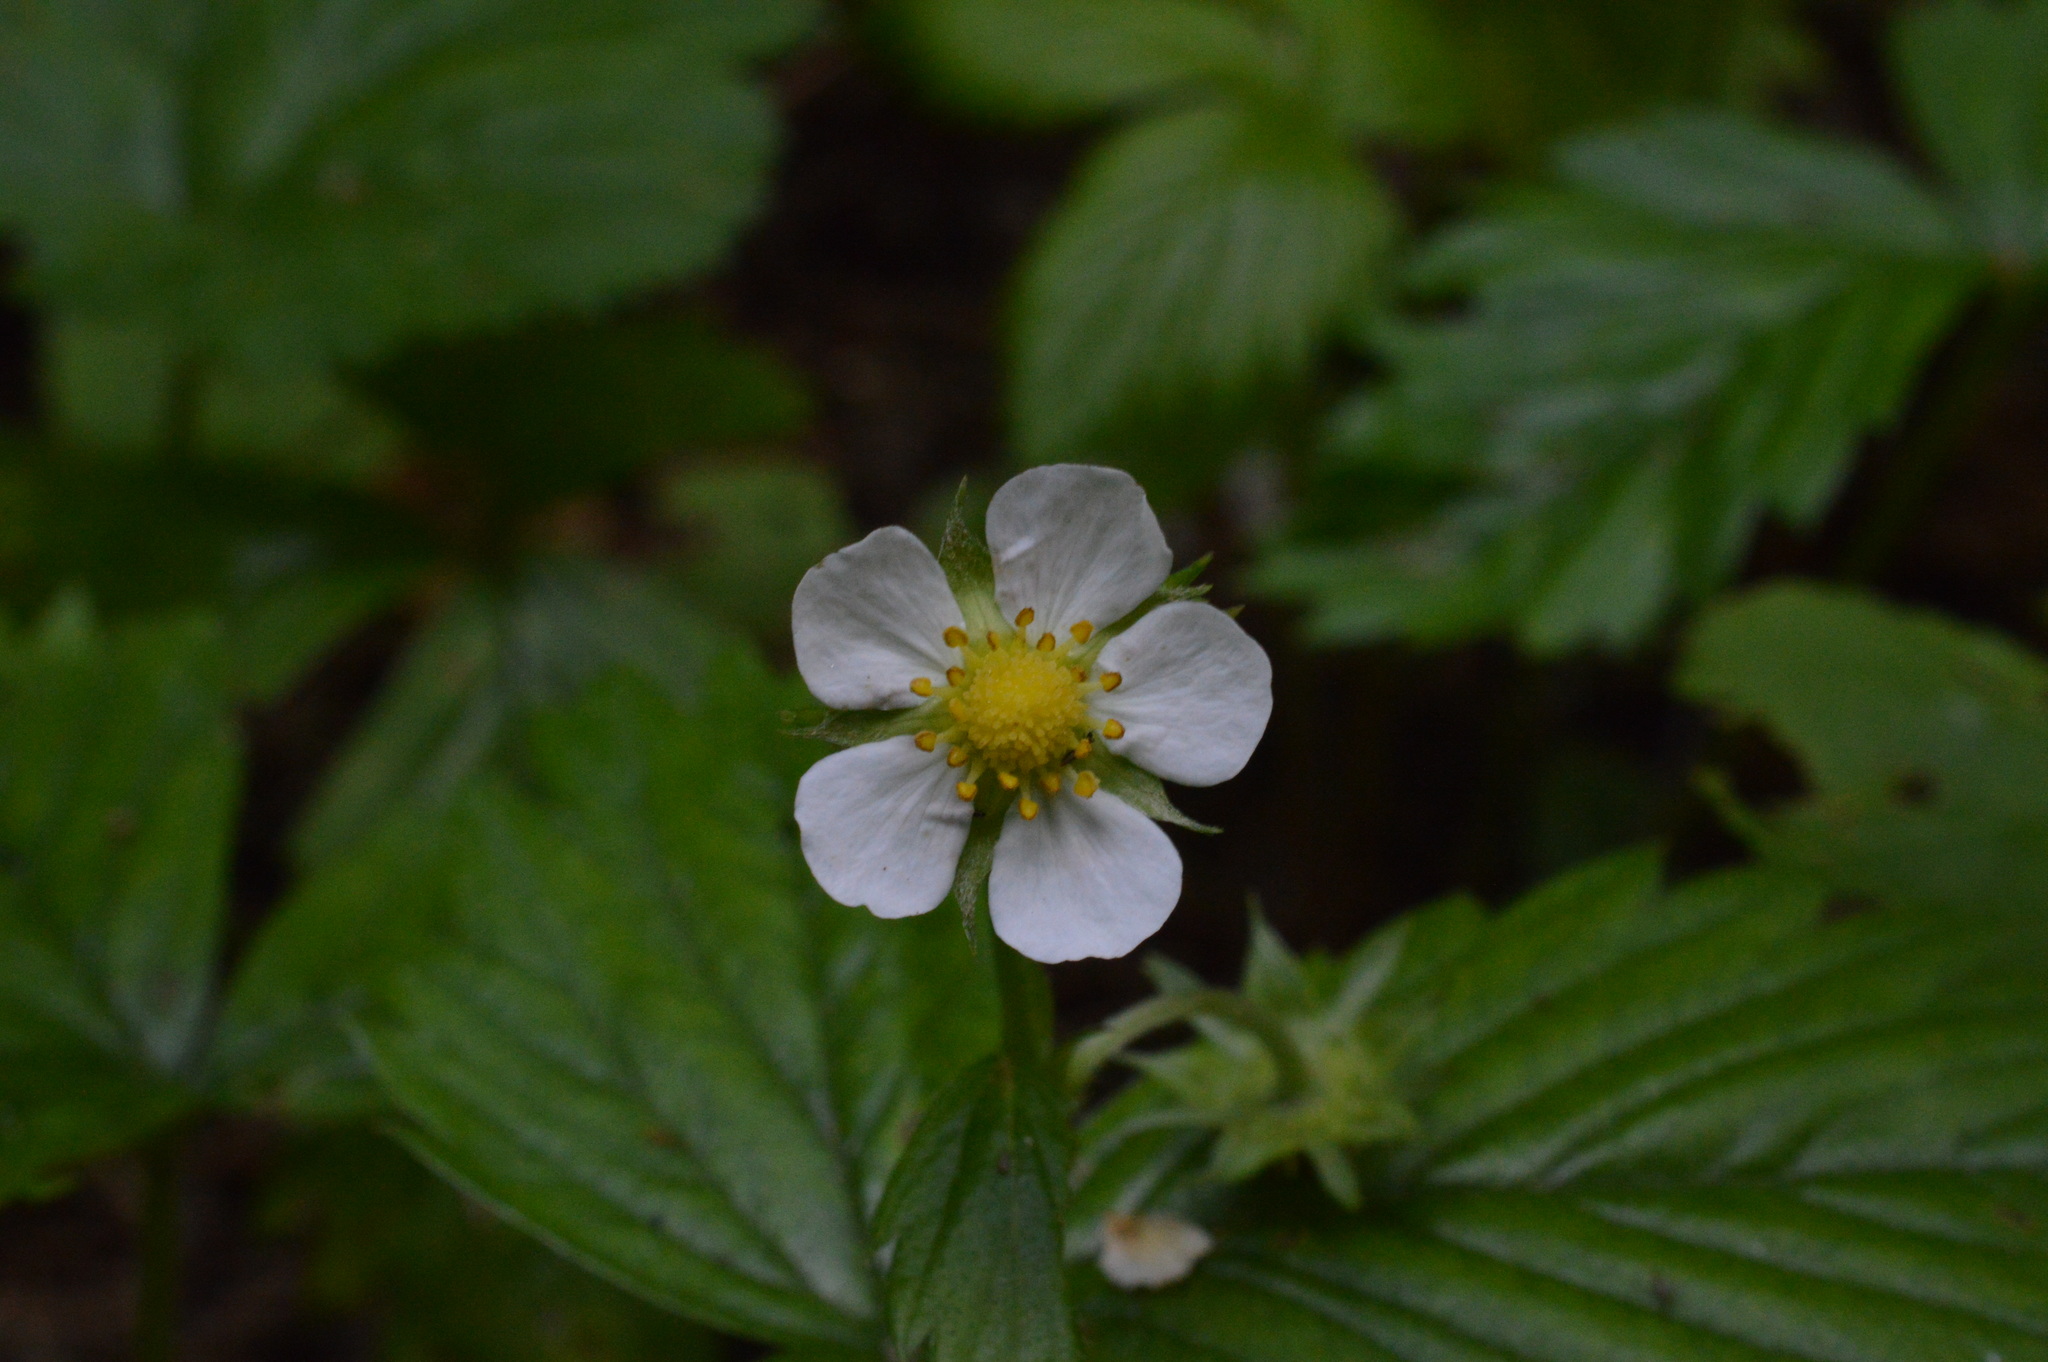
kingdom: Plantae
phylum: Tracheophyta
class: Magnoliopsida
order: Rosales
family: Rosaceae
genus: Fragaria
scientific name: Fragaria vesca
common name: Wild strawberry
